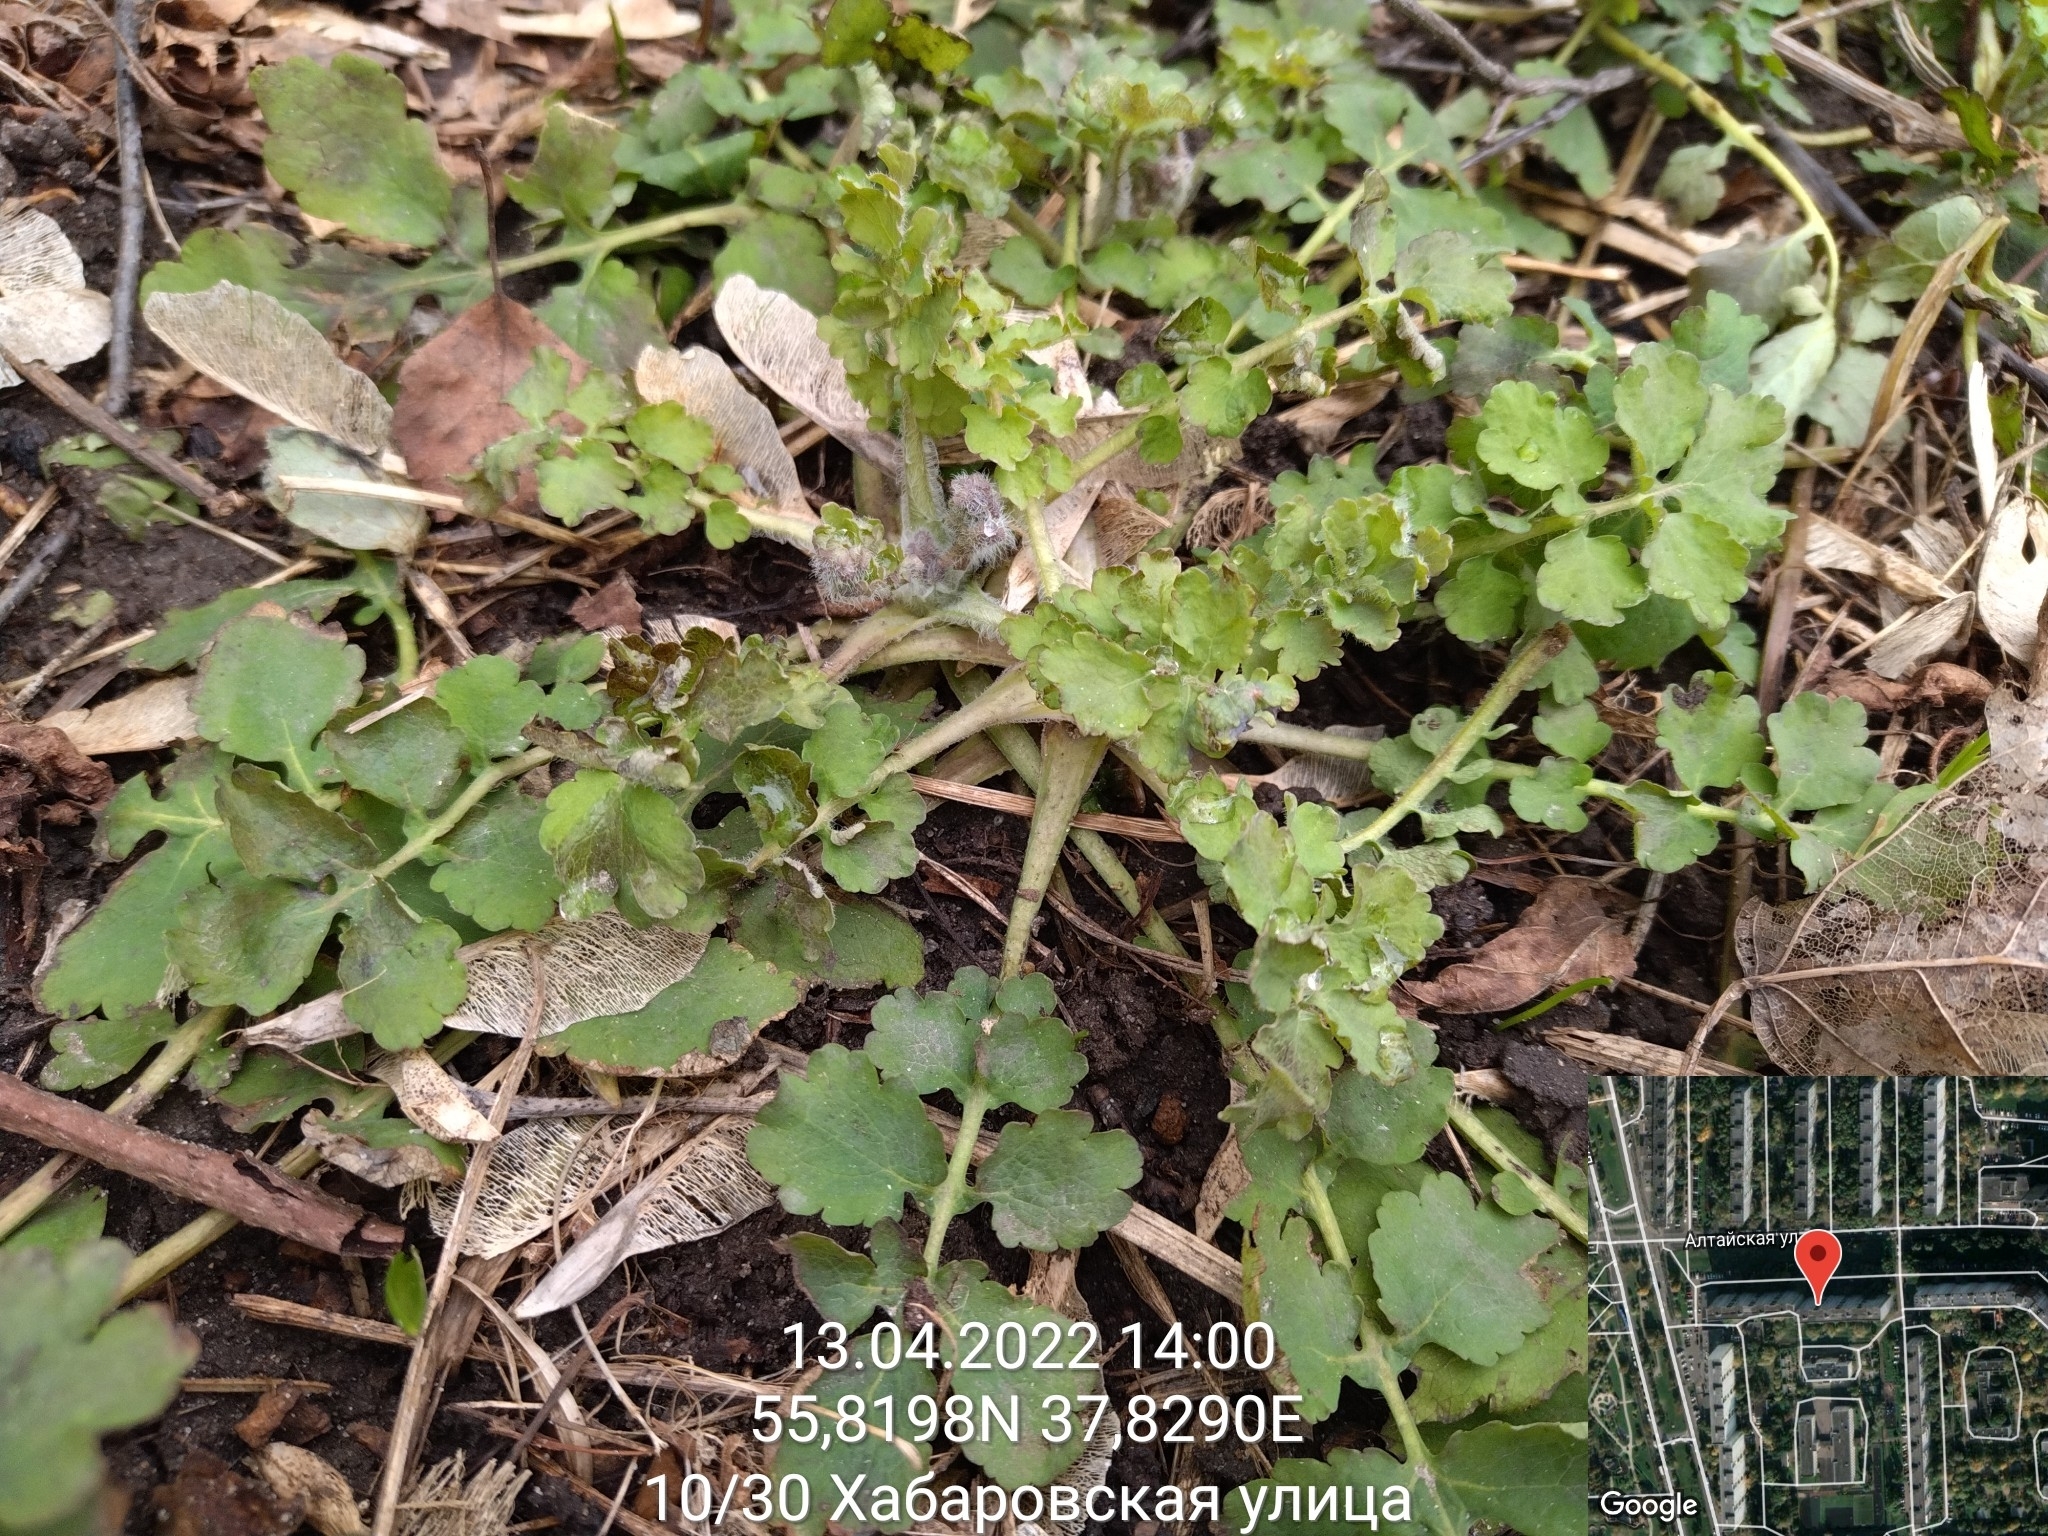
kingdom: Plantae
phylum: Tracheophyta
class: Magnoliopsida
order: Ranunculales
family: Papaveraceae
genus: Chelidonium
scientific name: Chelidonium majus
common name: Greater celandine
